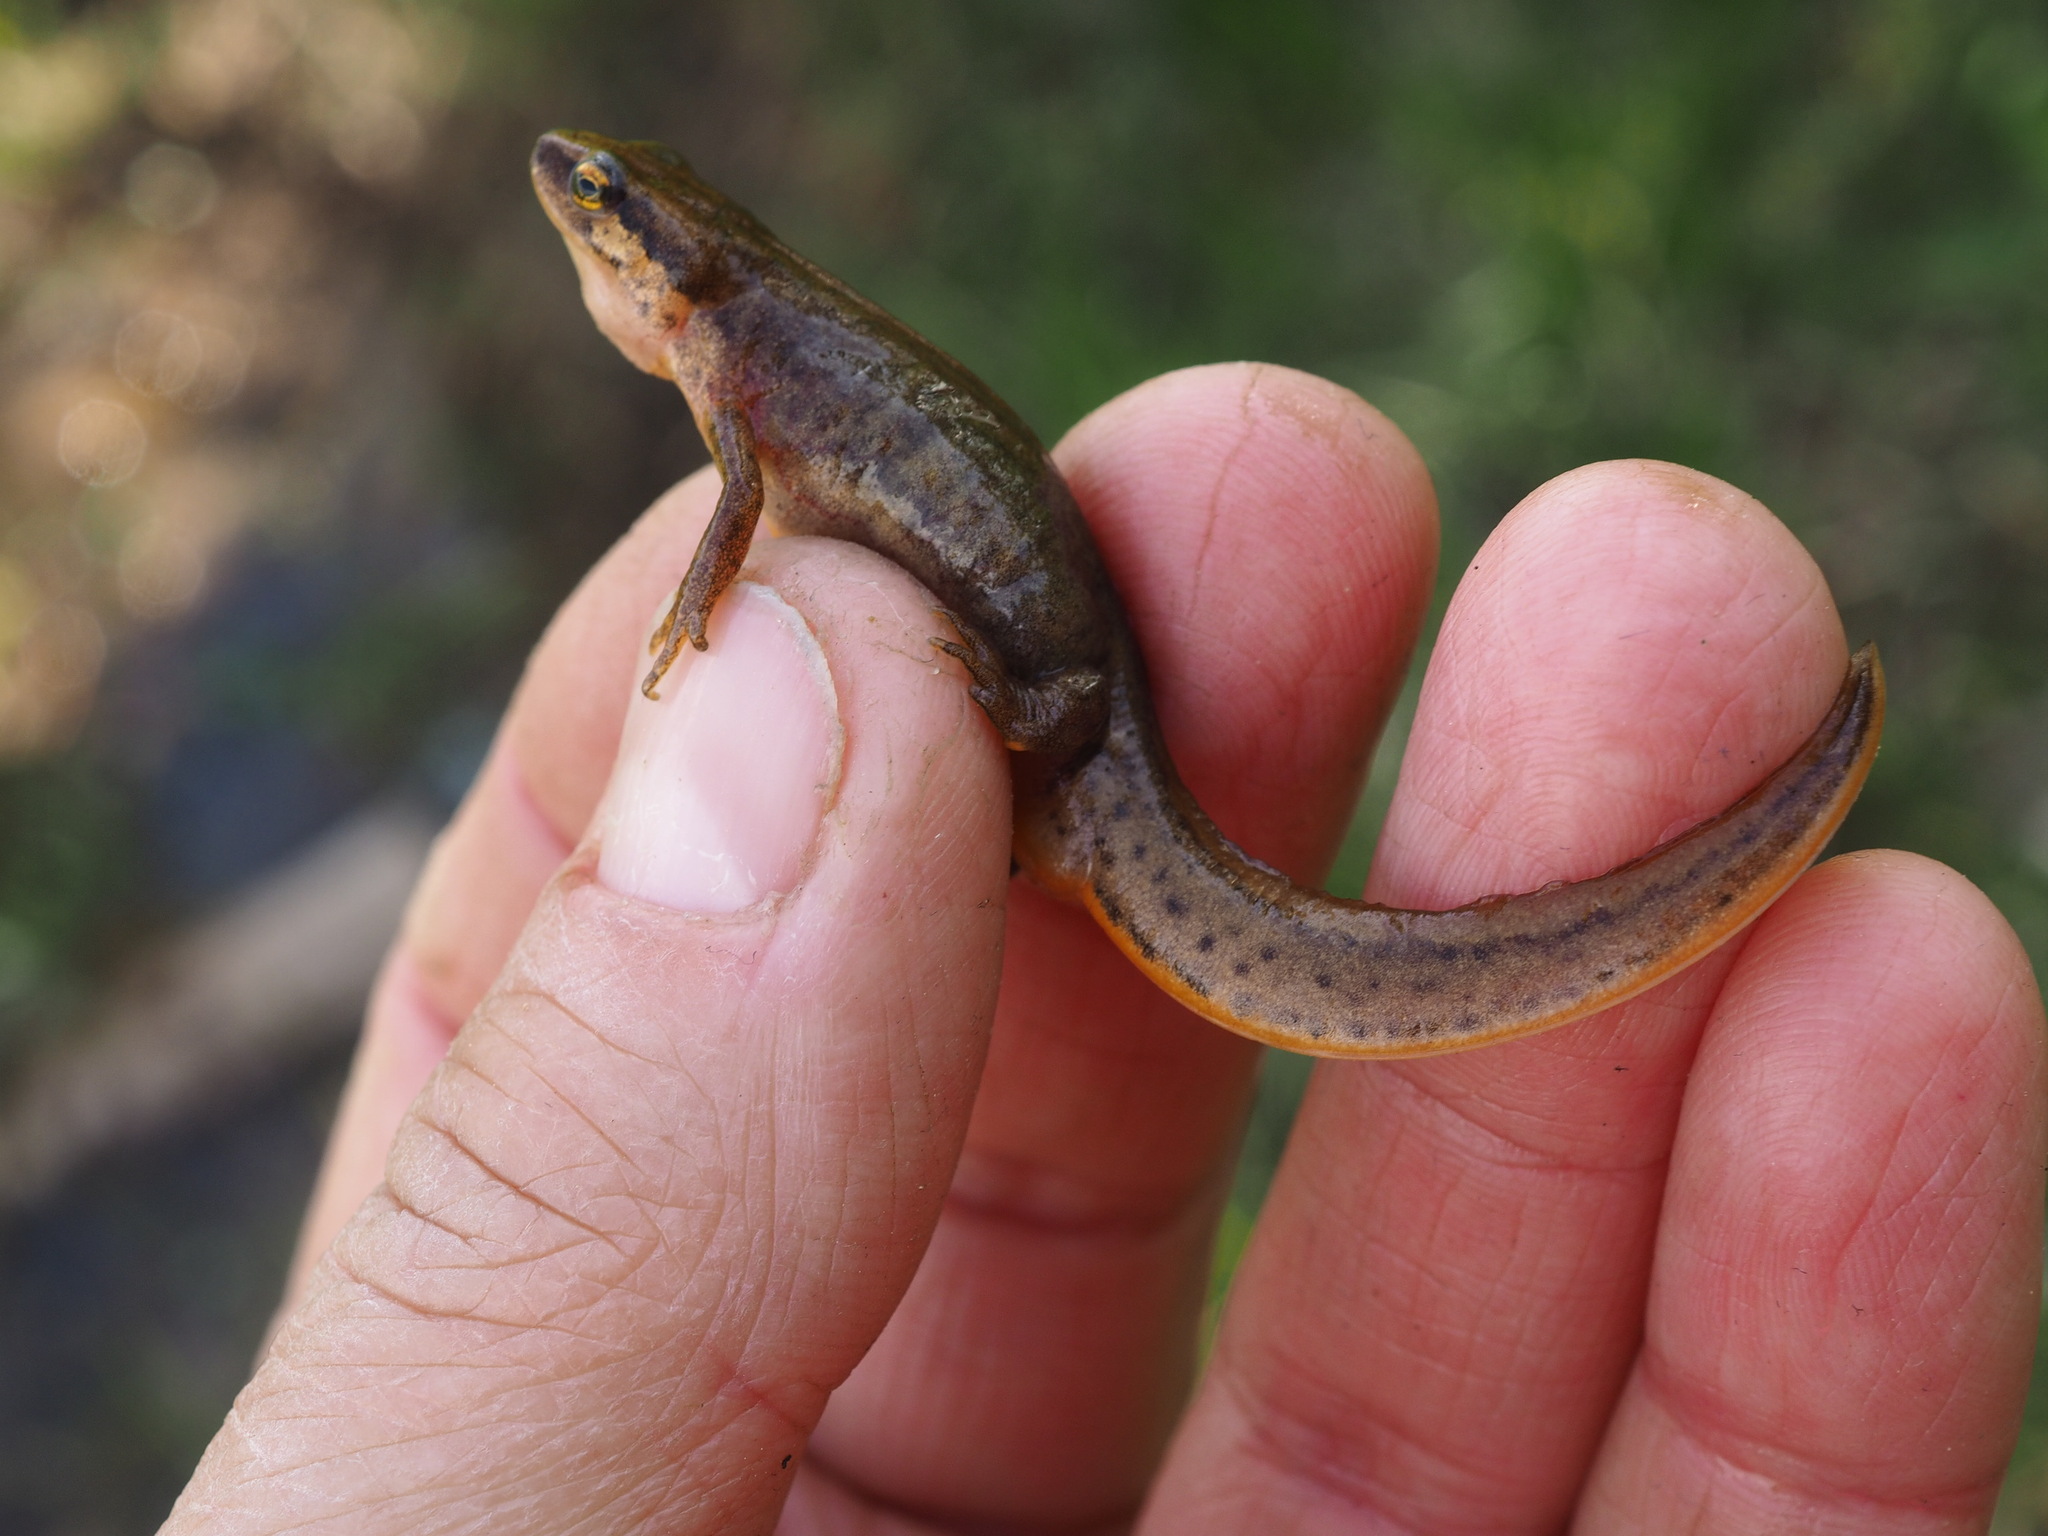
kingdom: Animalia
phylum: Chordata
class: Amphibia
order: Caudata
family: Salamandridae
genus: Lissotriton
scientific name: Lissotriton helveticus
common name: Palmate newt
